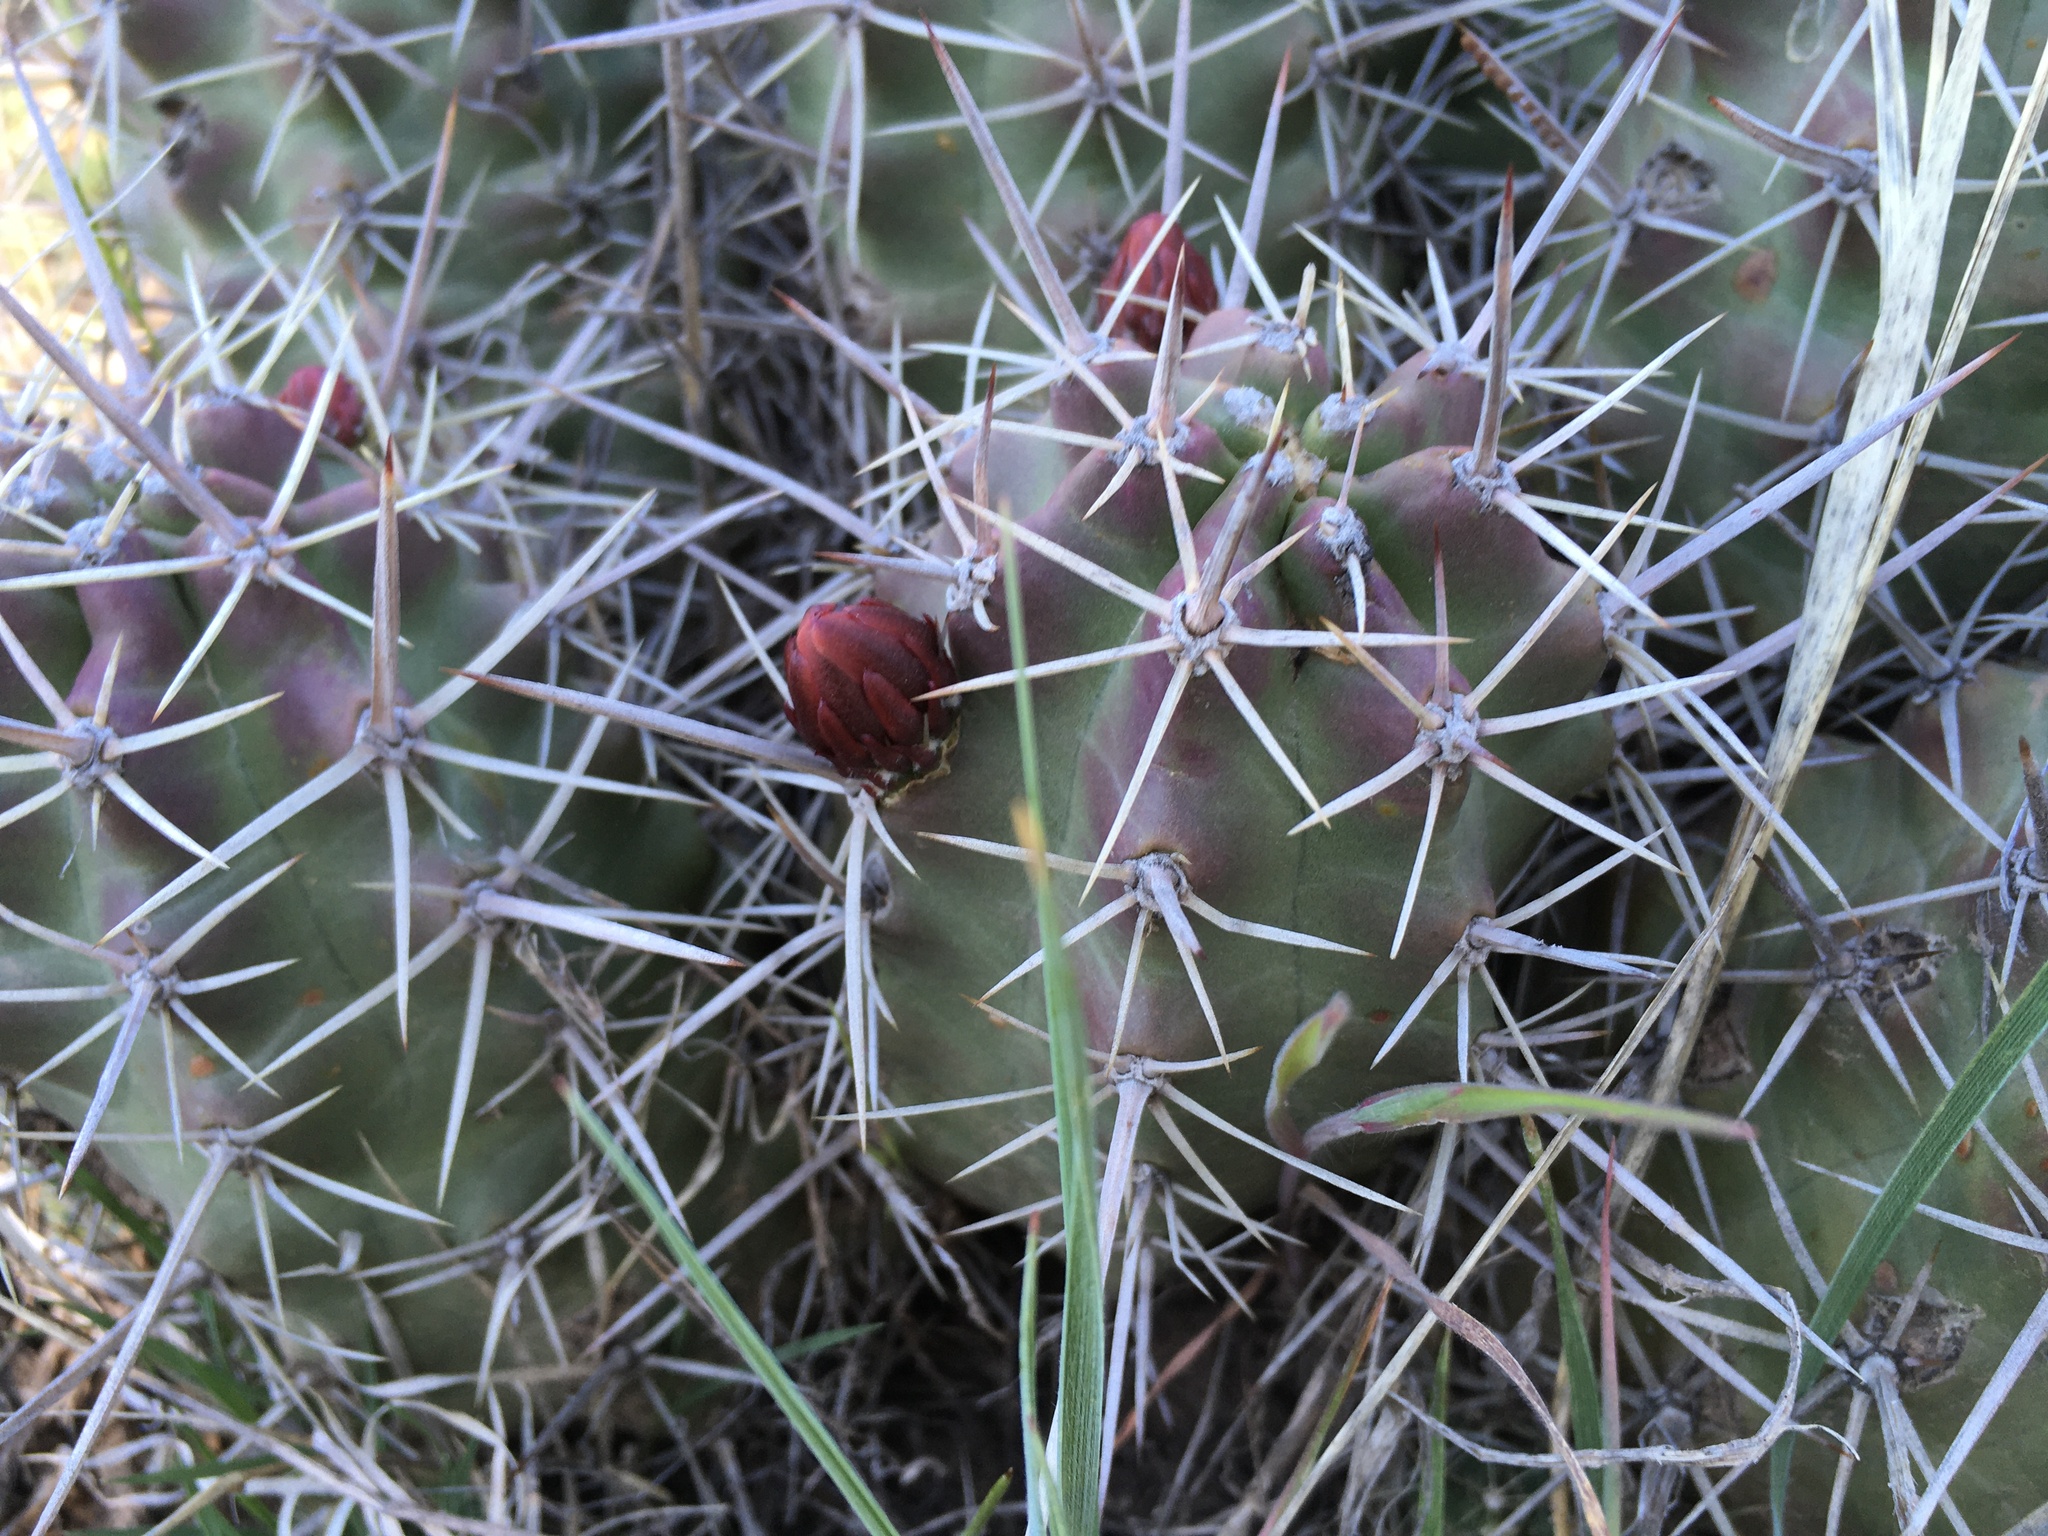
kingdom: Plantae
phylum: Tracheophyta
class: Magnoliopsida
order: Caryophyllales
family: Cactaceae
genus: Echinocereus
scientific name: Echinocereus triglochidiatus
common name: Claretcup hedgehog
